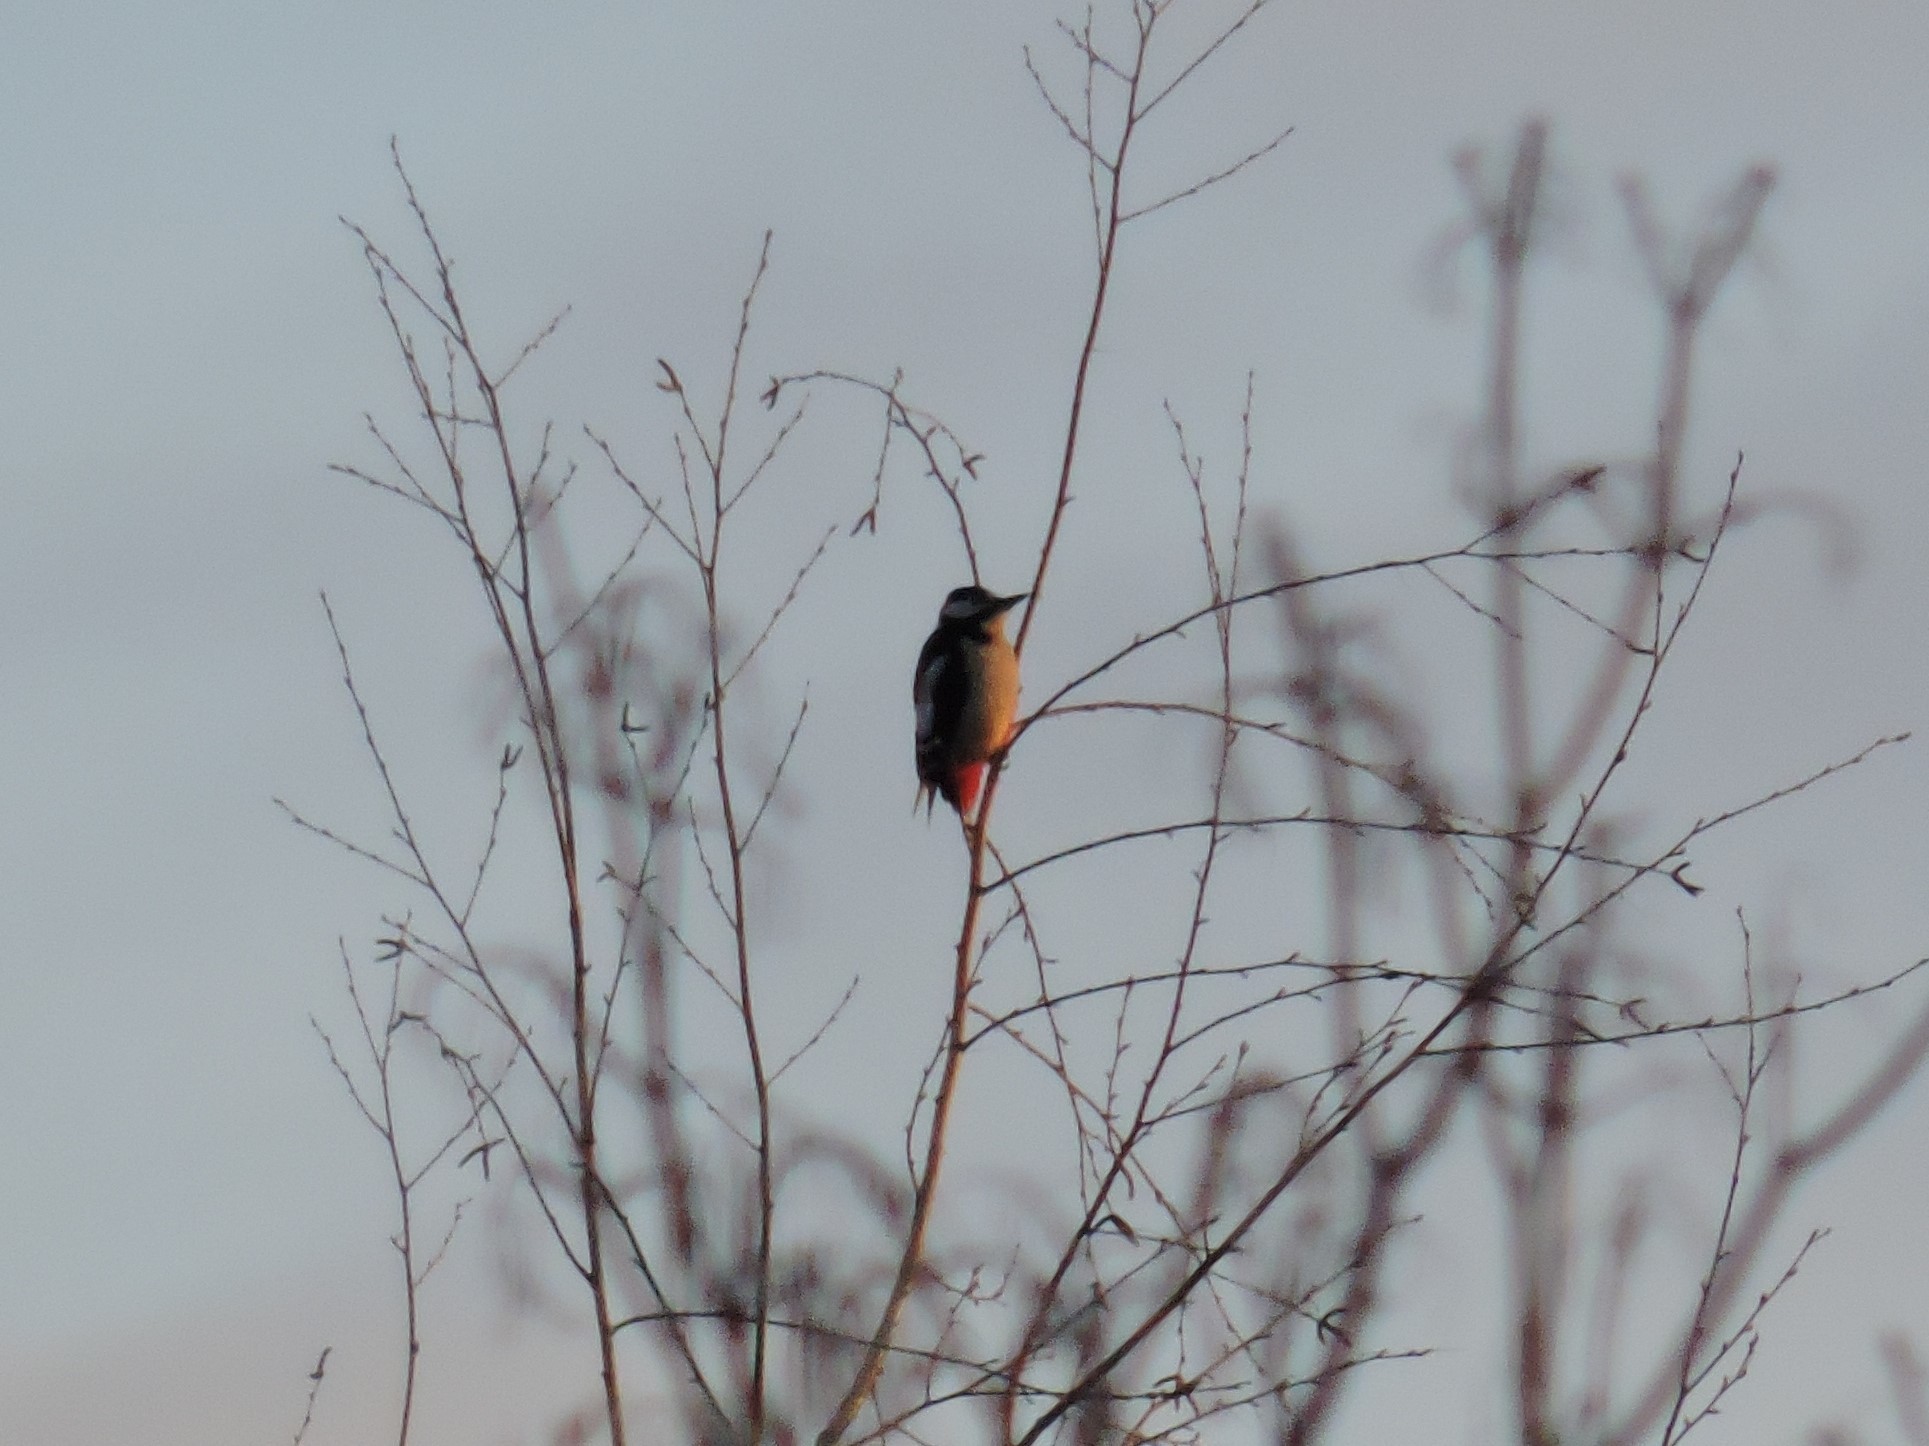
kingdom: Animalia
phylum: Chordata
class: Aves
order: Piciformes
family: Picidae
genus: Dendrocopos
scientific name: Dendrocopos major
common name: Great spotted woodpecker
